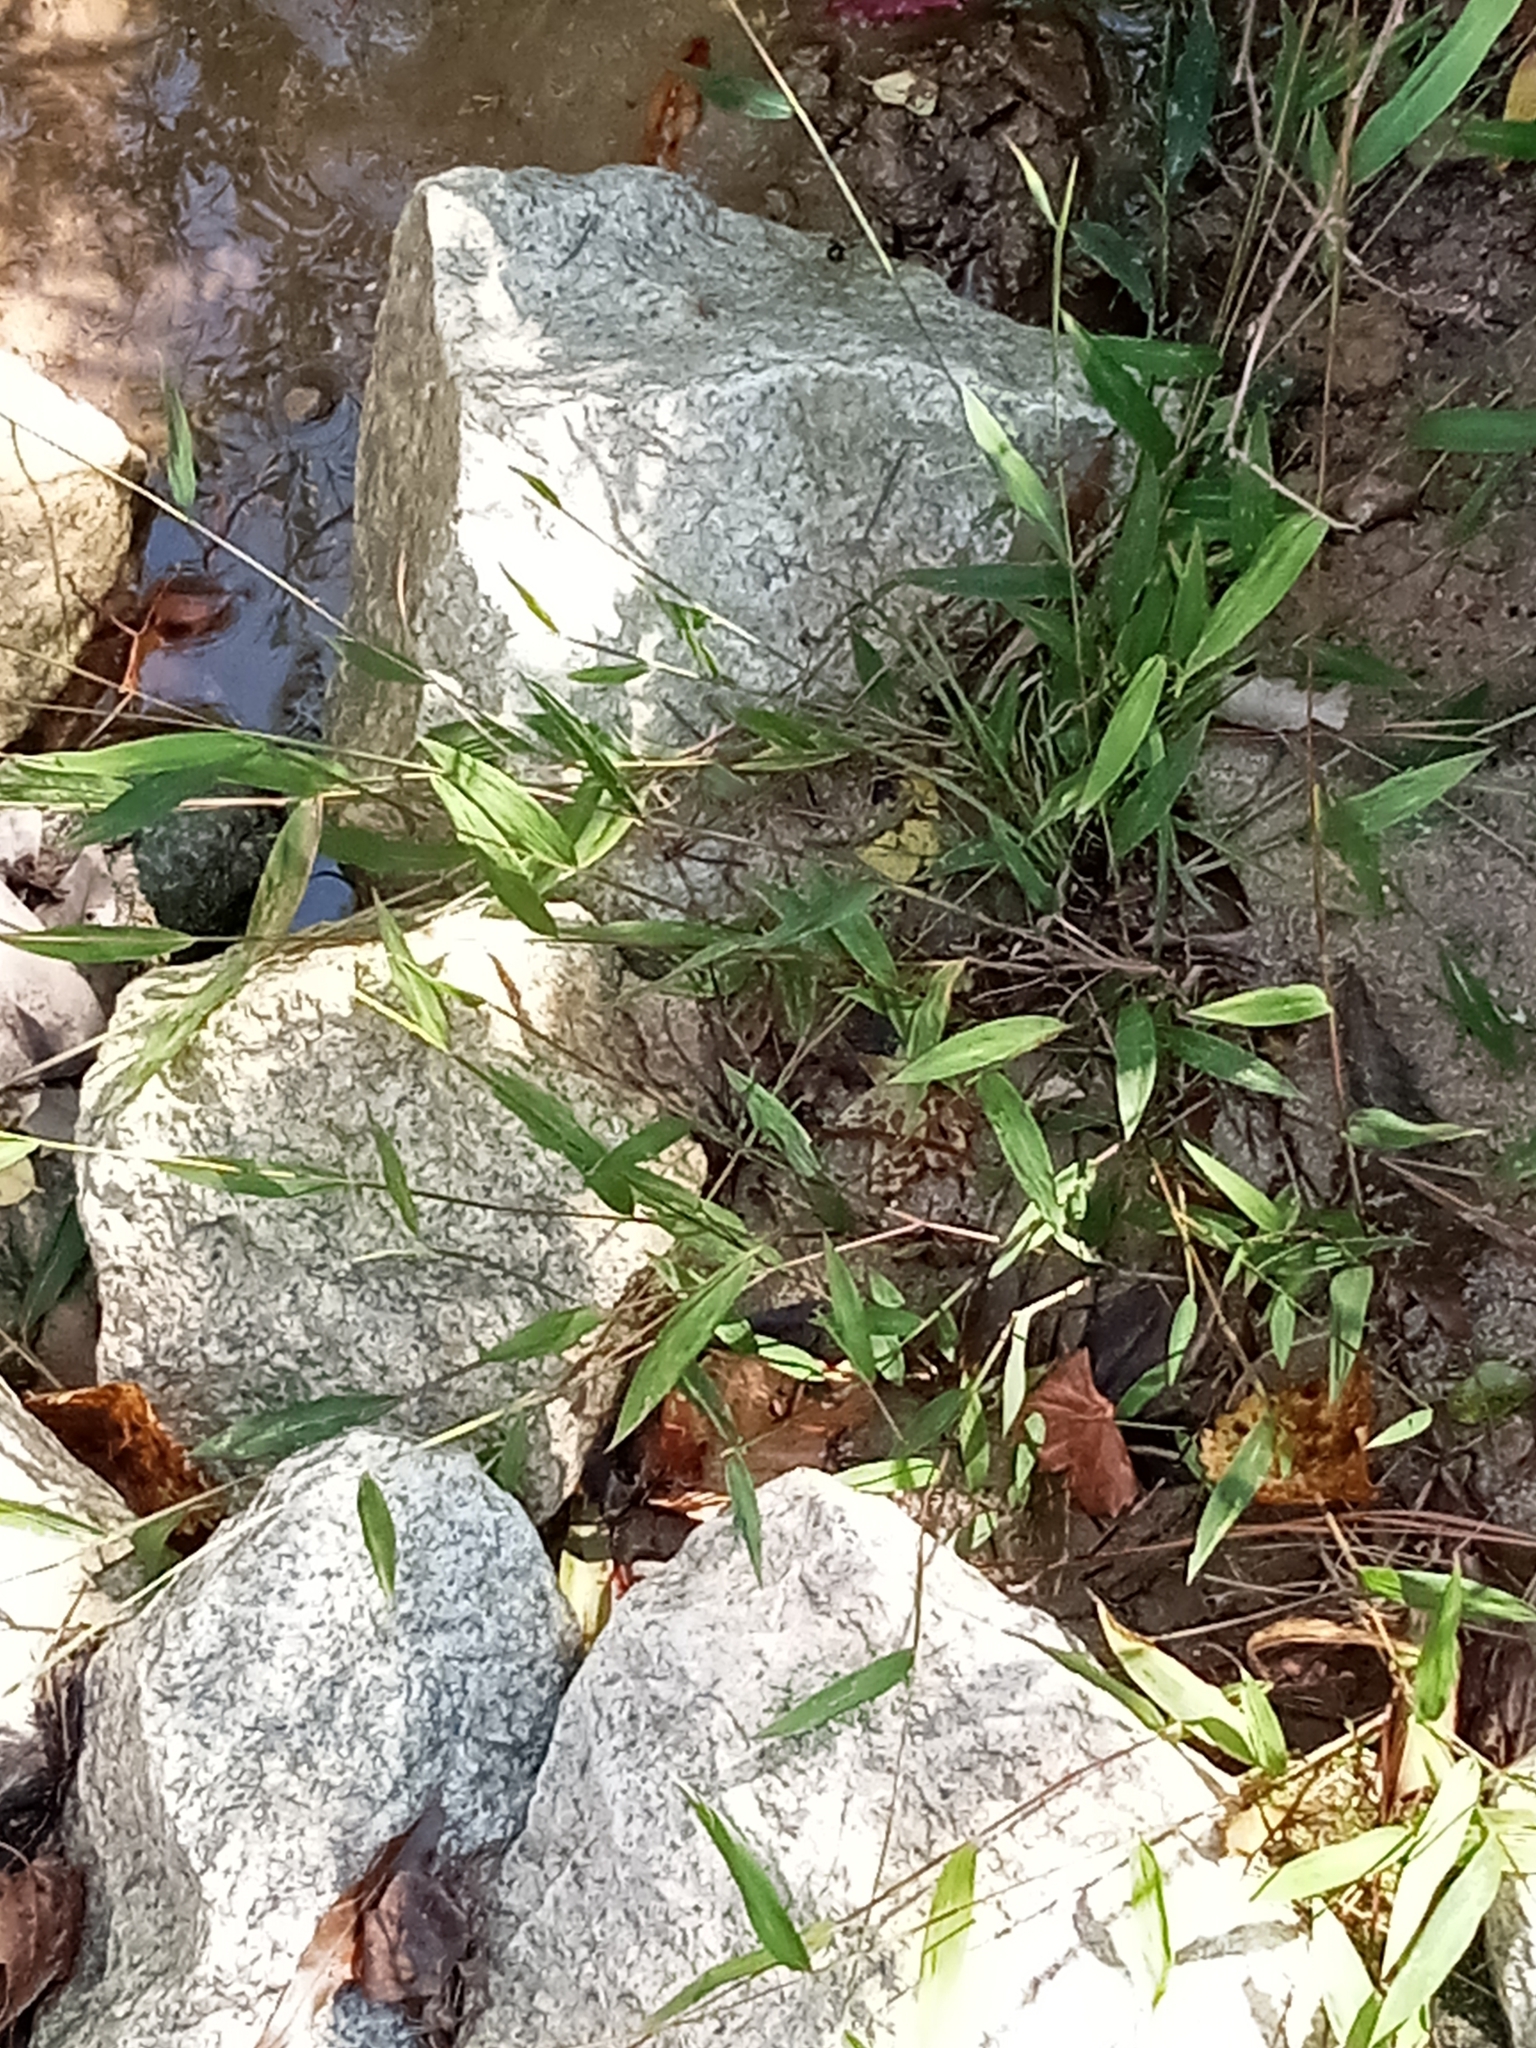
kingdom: Plantae
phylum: Tracheophyta
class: Liliopsida
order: Poales
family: Poaceae
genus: Microstegium
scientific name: Microstegium vimineum
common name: Japanese stiltgrass
